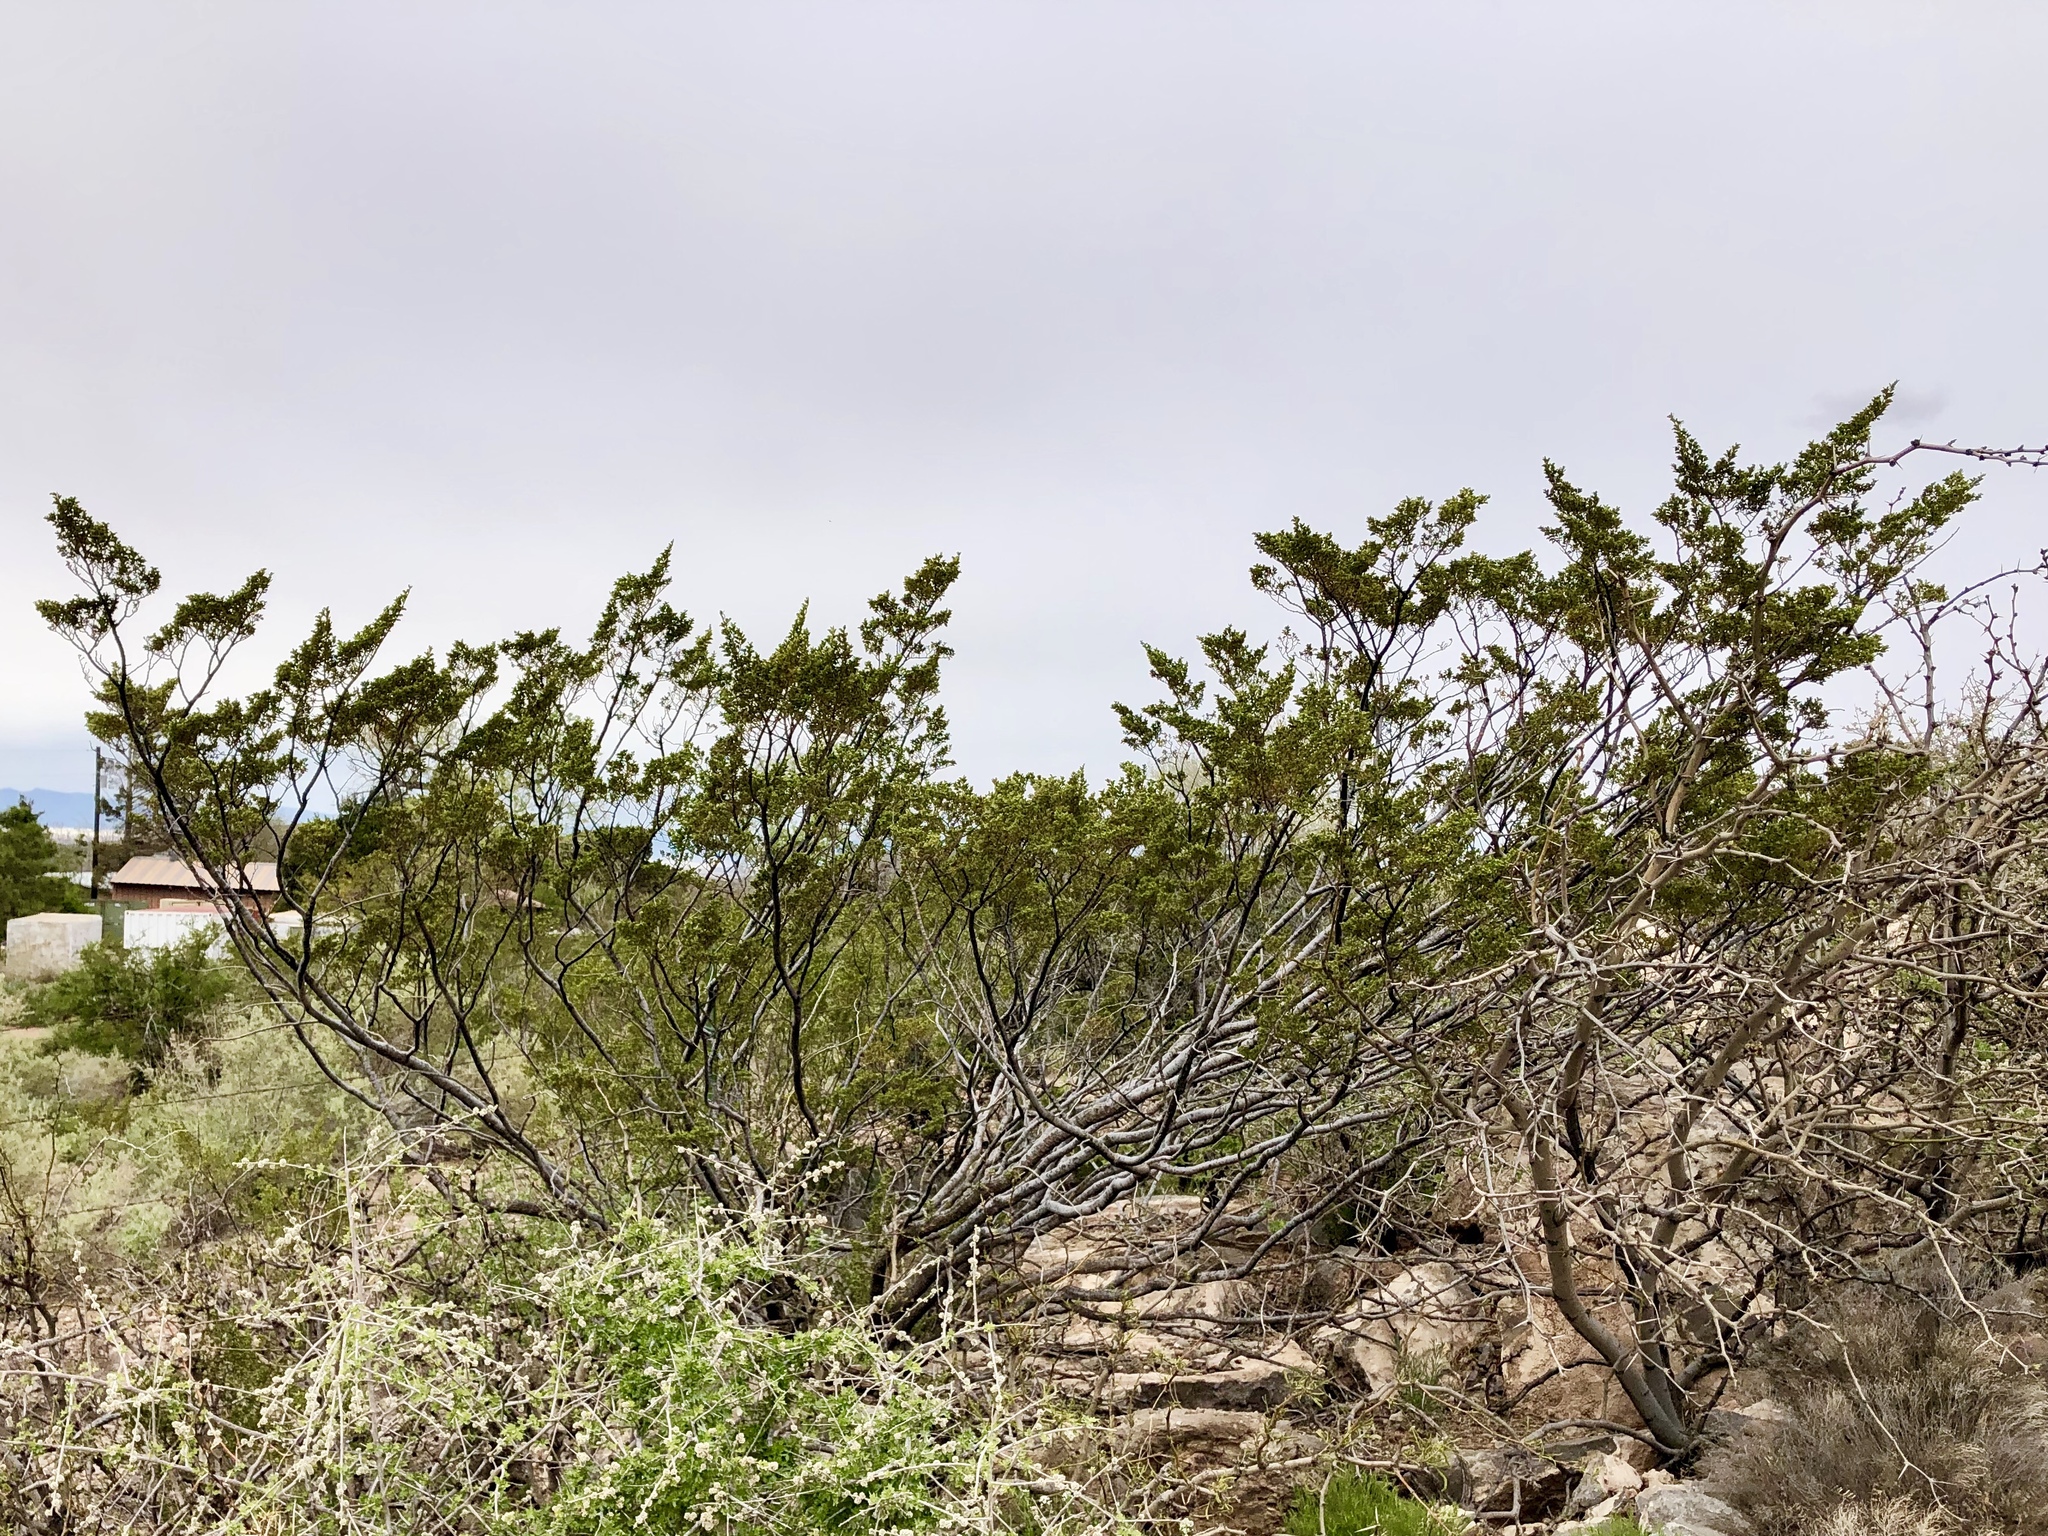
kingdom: Plantae
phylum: Tracheophyta
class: Magnoliopsida
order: Zygophyllales
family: Zygophyllaceae
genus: Larrea
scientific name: Larrea tridentata
